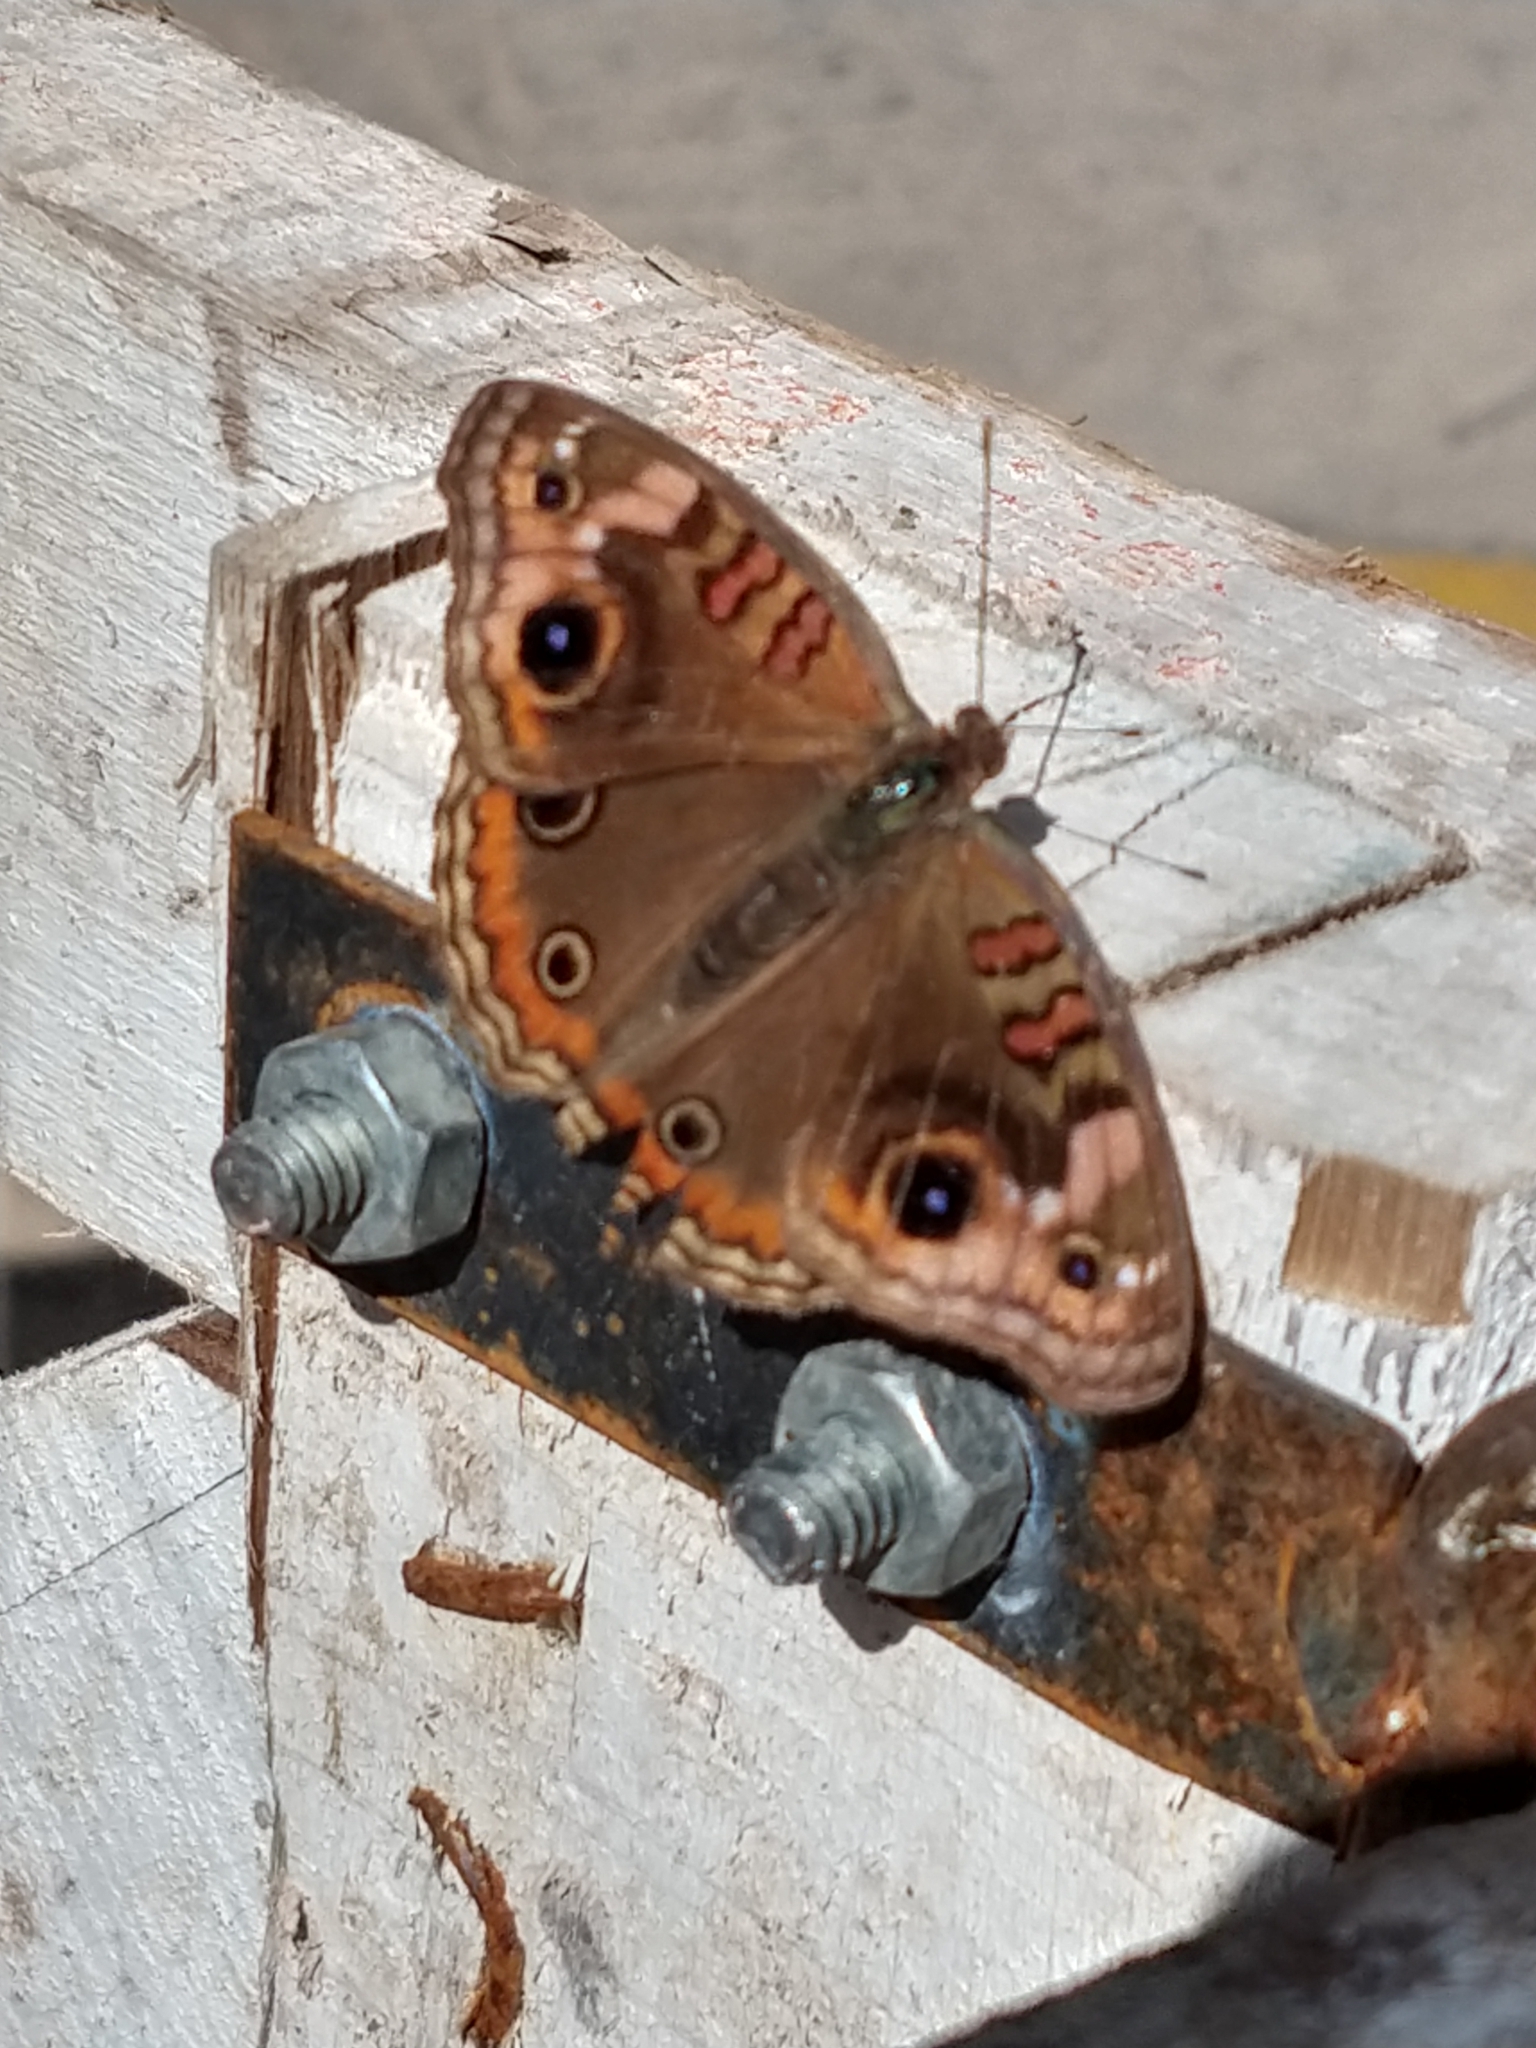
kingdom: Animalia
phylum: Arthropoda
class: Insecta
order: Lepidoptera
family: Nymphalidae
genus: Junonia
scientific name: Junonia lavinia
